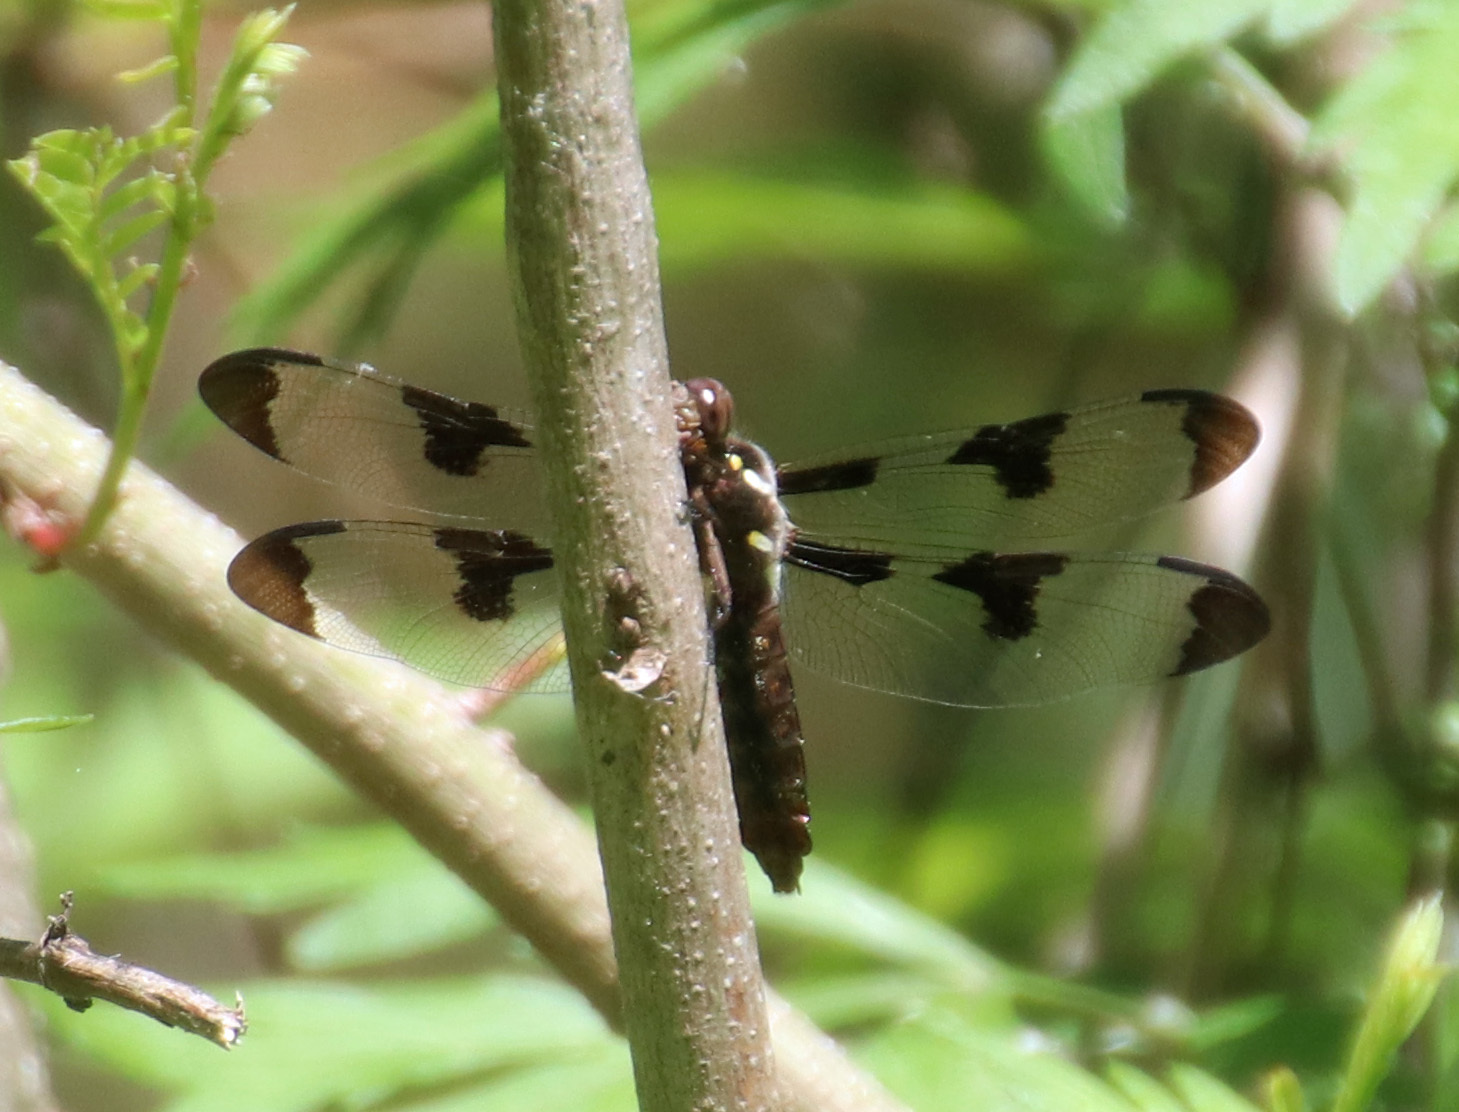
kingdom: Animalia
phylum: Arthropoda
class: Insecta
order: Odonata
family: Libellulidae
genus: Plathemis
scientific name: Plathemis lydia
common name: Common whitetail
